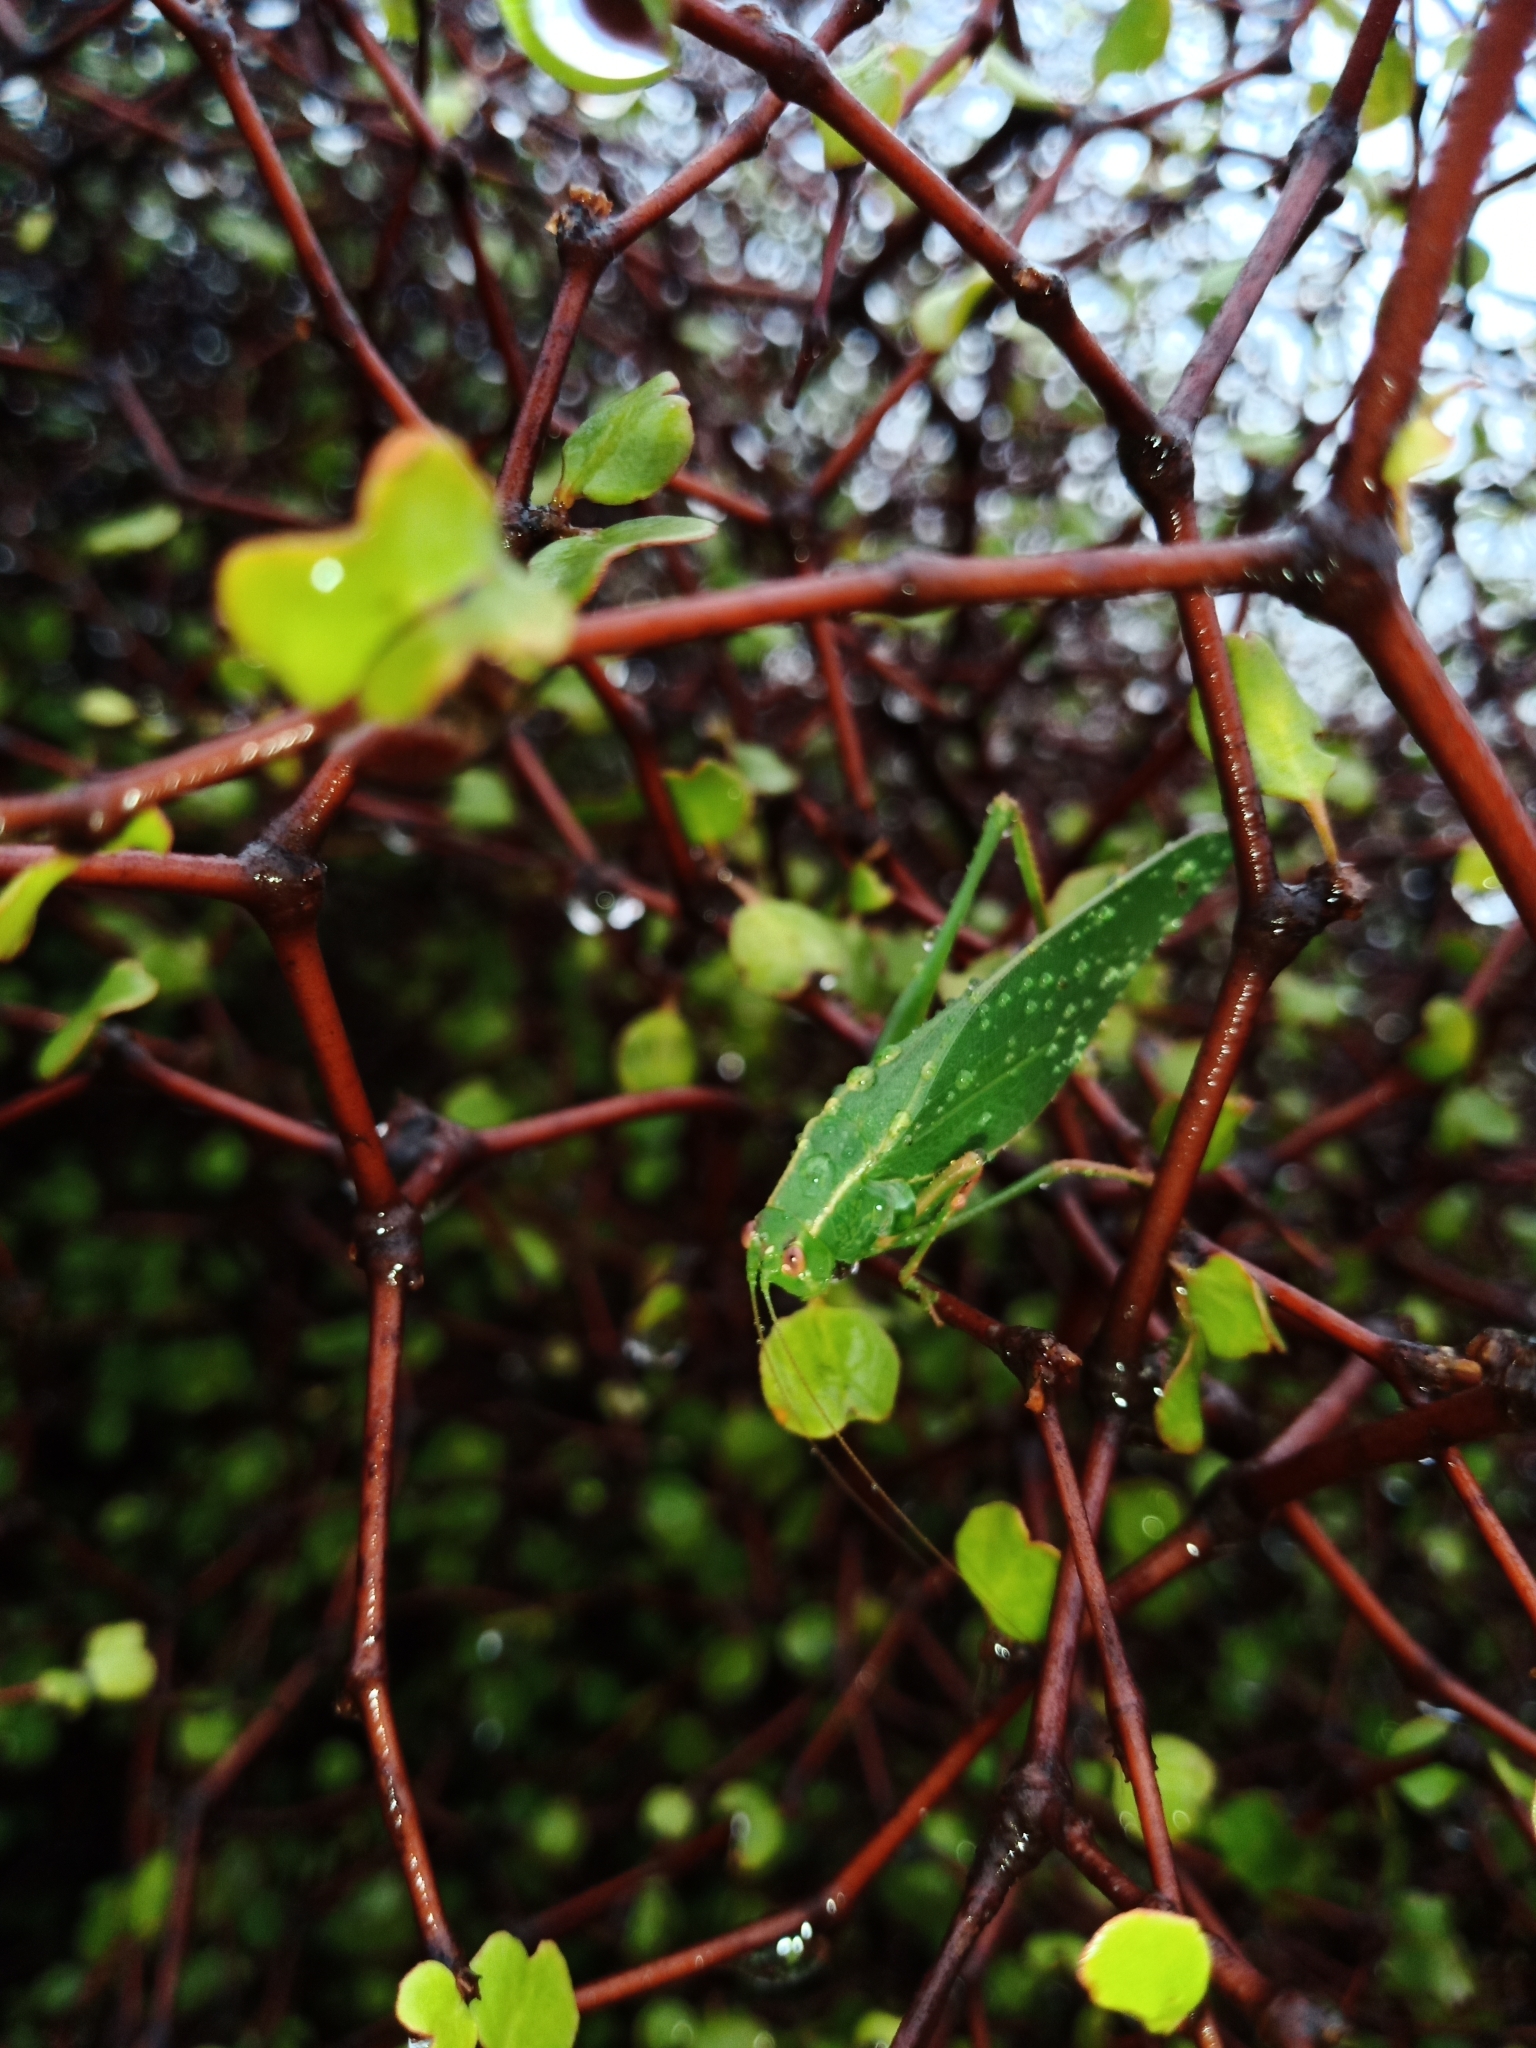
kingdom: Animalia
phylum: Arthropoda
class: Insecta
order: Orthoptera
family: Tettigoniidae
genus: Caedicia
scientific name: Caedicia simplex
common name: Common garden katydid
